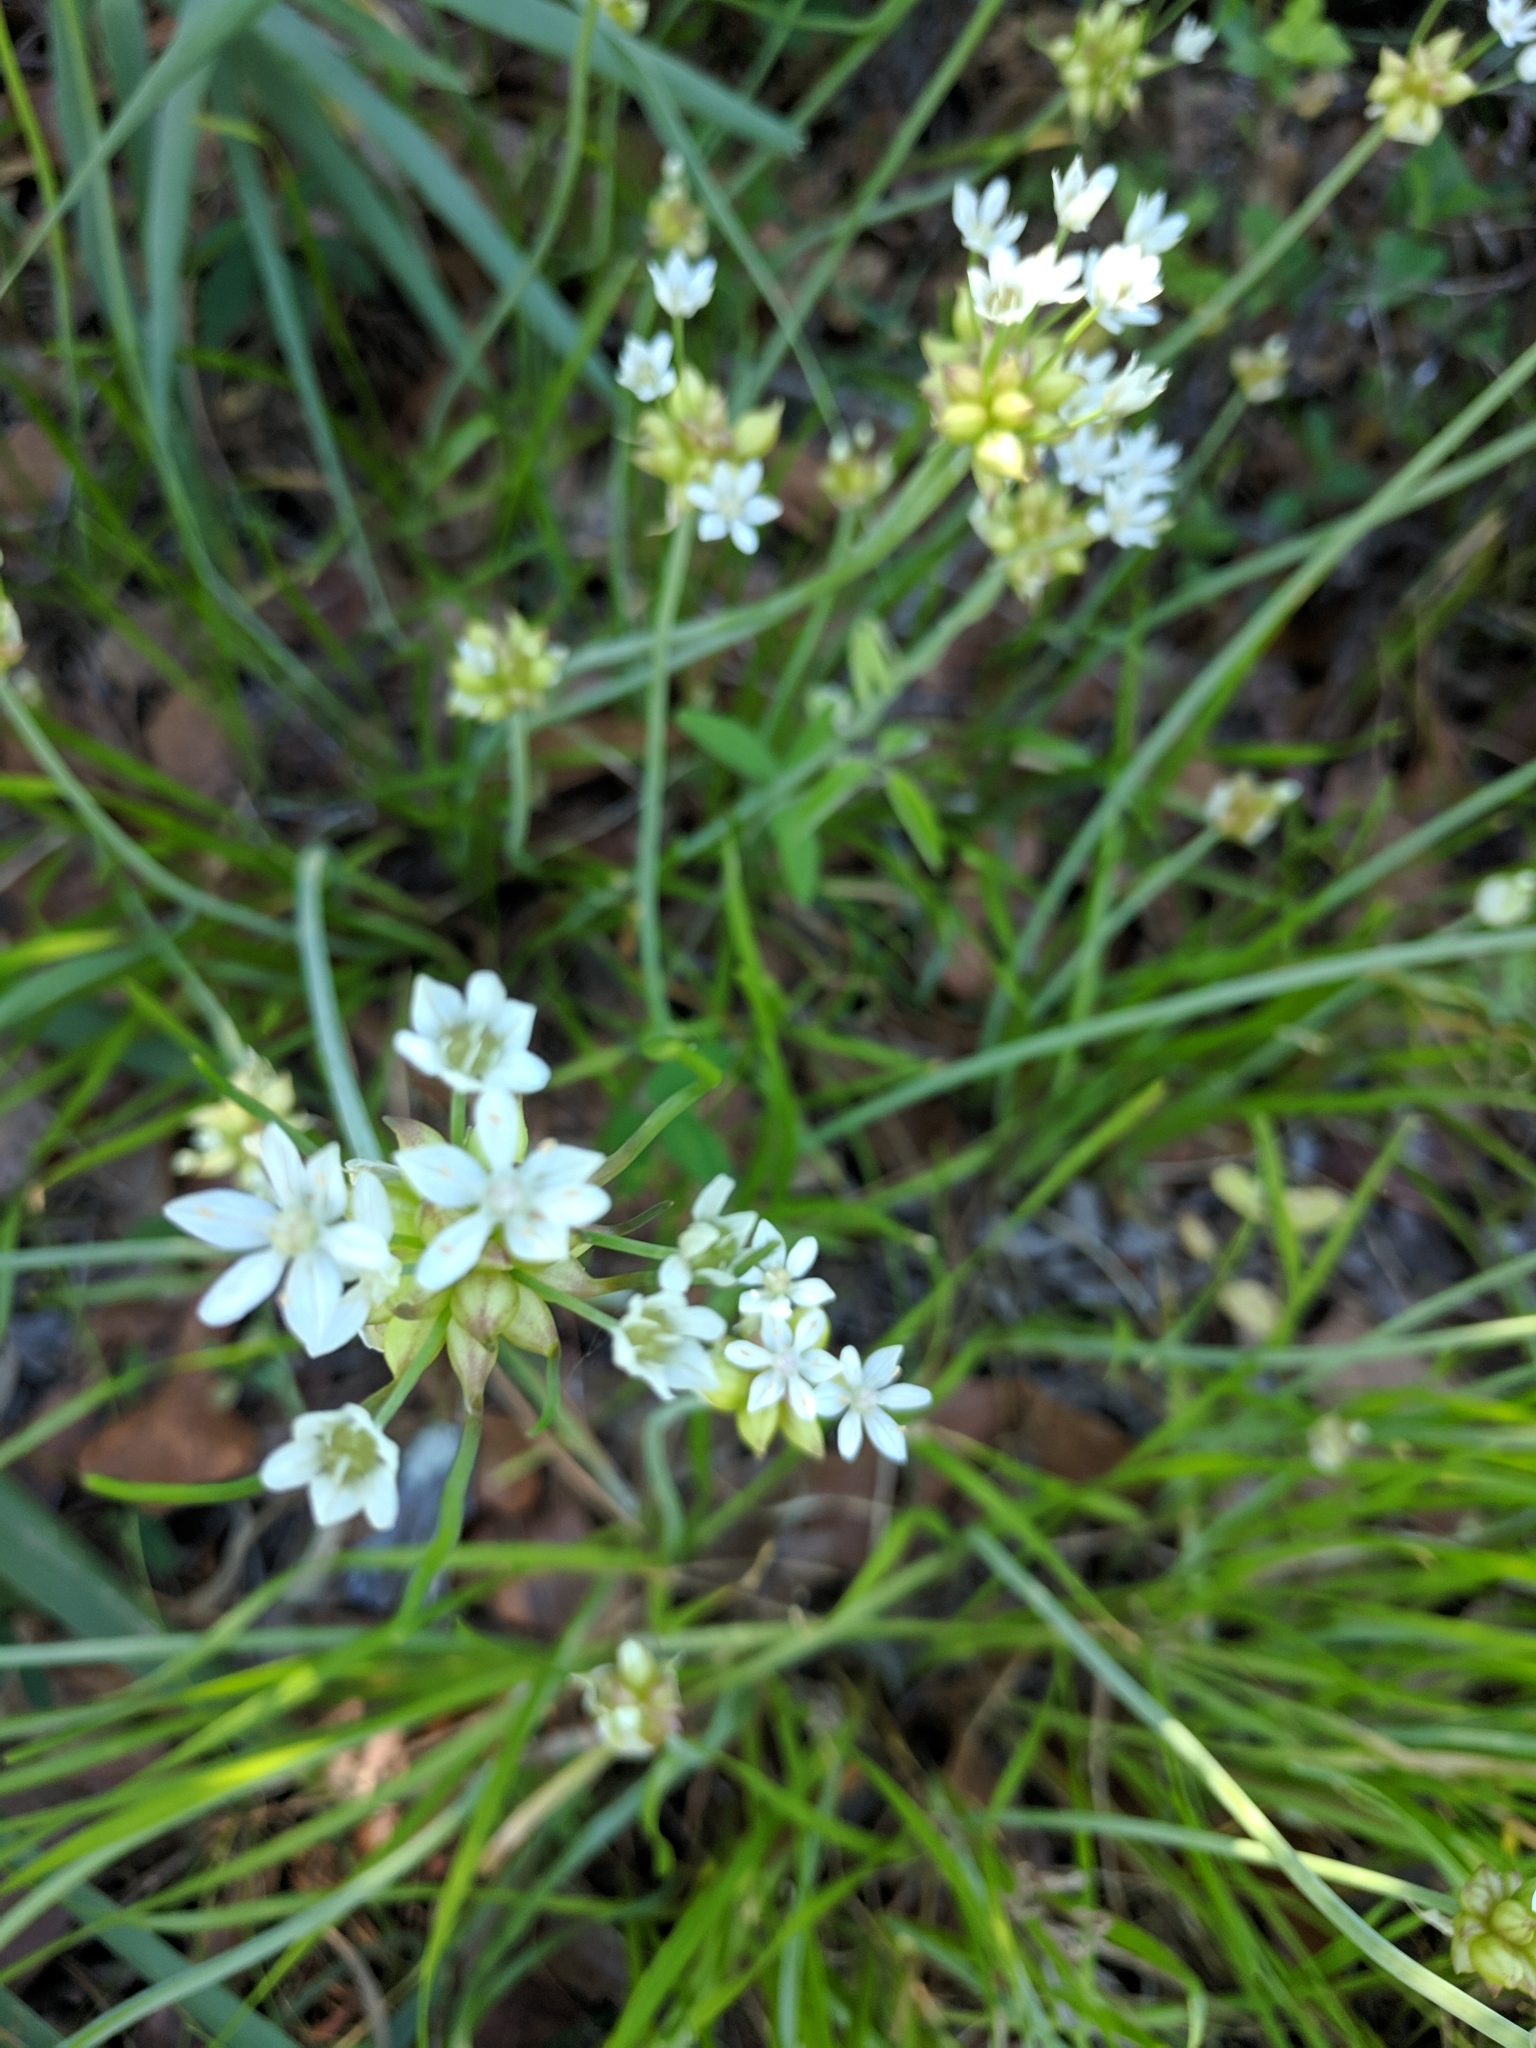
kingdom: Plantae
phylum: Tracheophyta
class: Liliopsida
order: Asparagales
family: Amaryllidaceae
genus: Allium
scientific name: Allium canadense
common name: Meadow garlic
